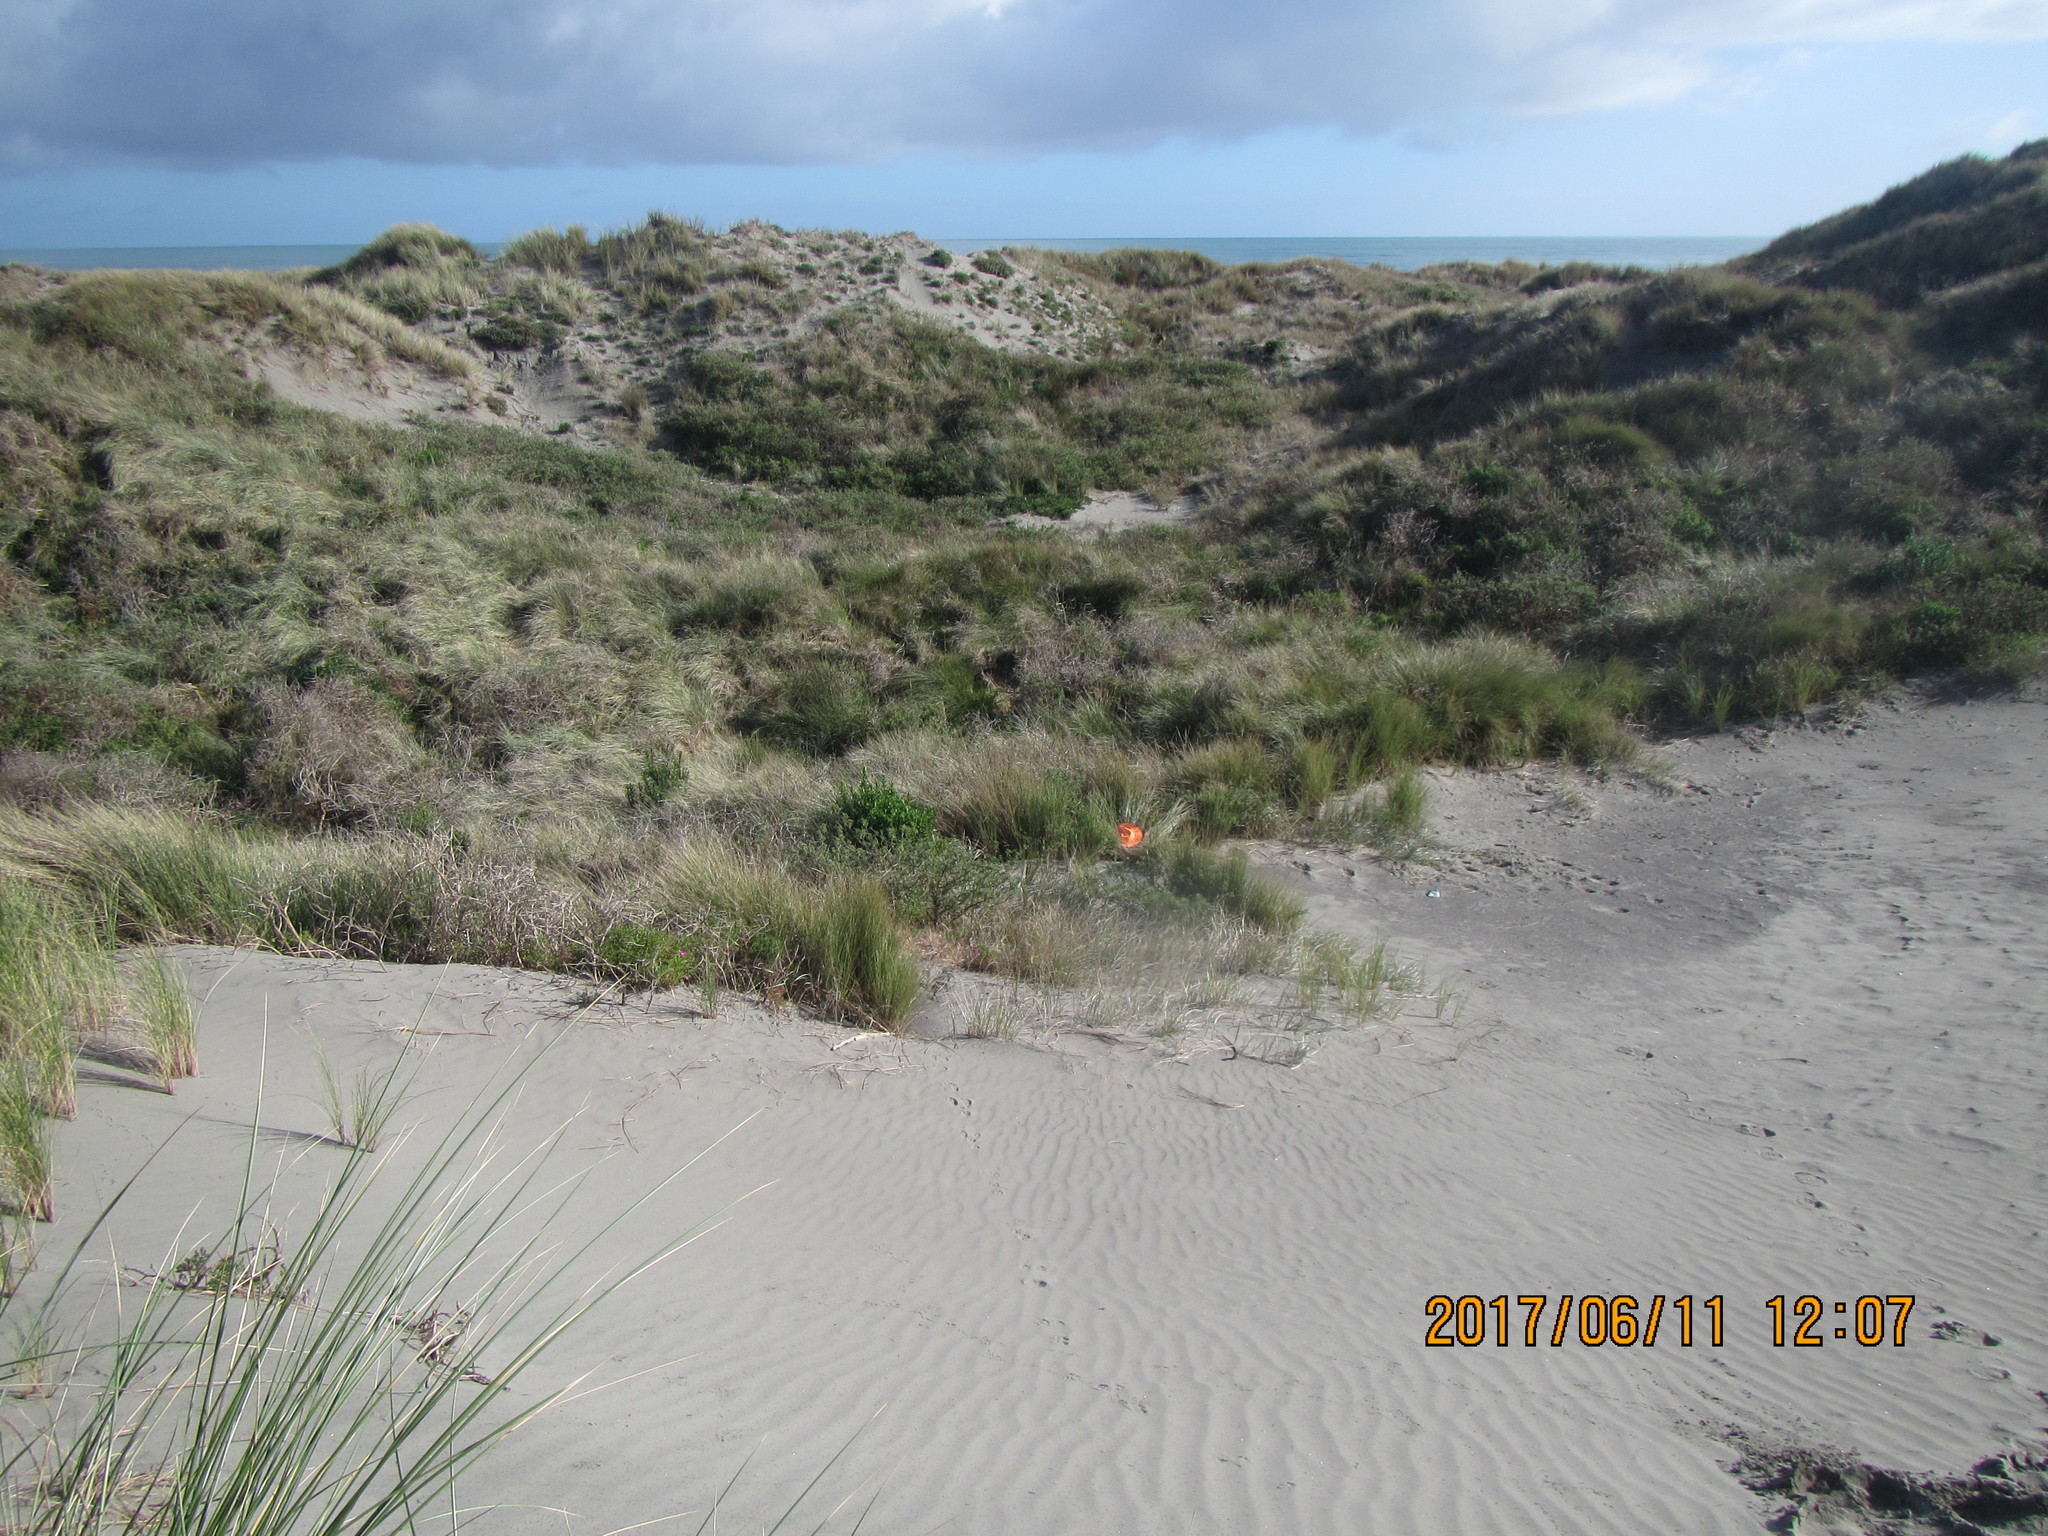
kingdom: Animalia
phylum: Arthropoda
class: Arachnida
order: Araneae
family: Thomisidae
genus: Sidymella
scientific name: Sidymella trapezia
